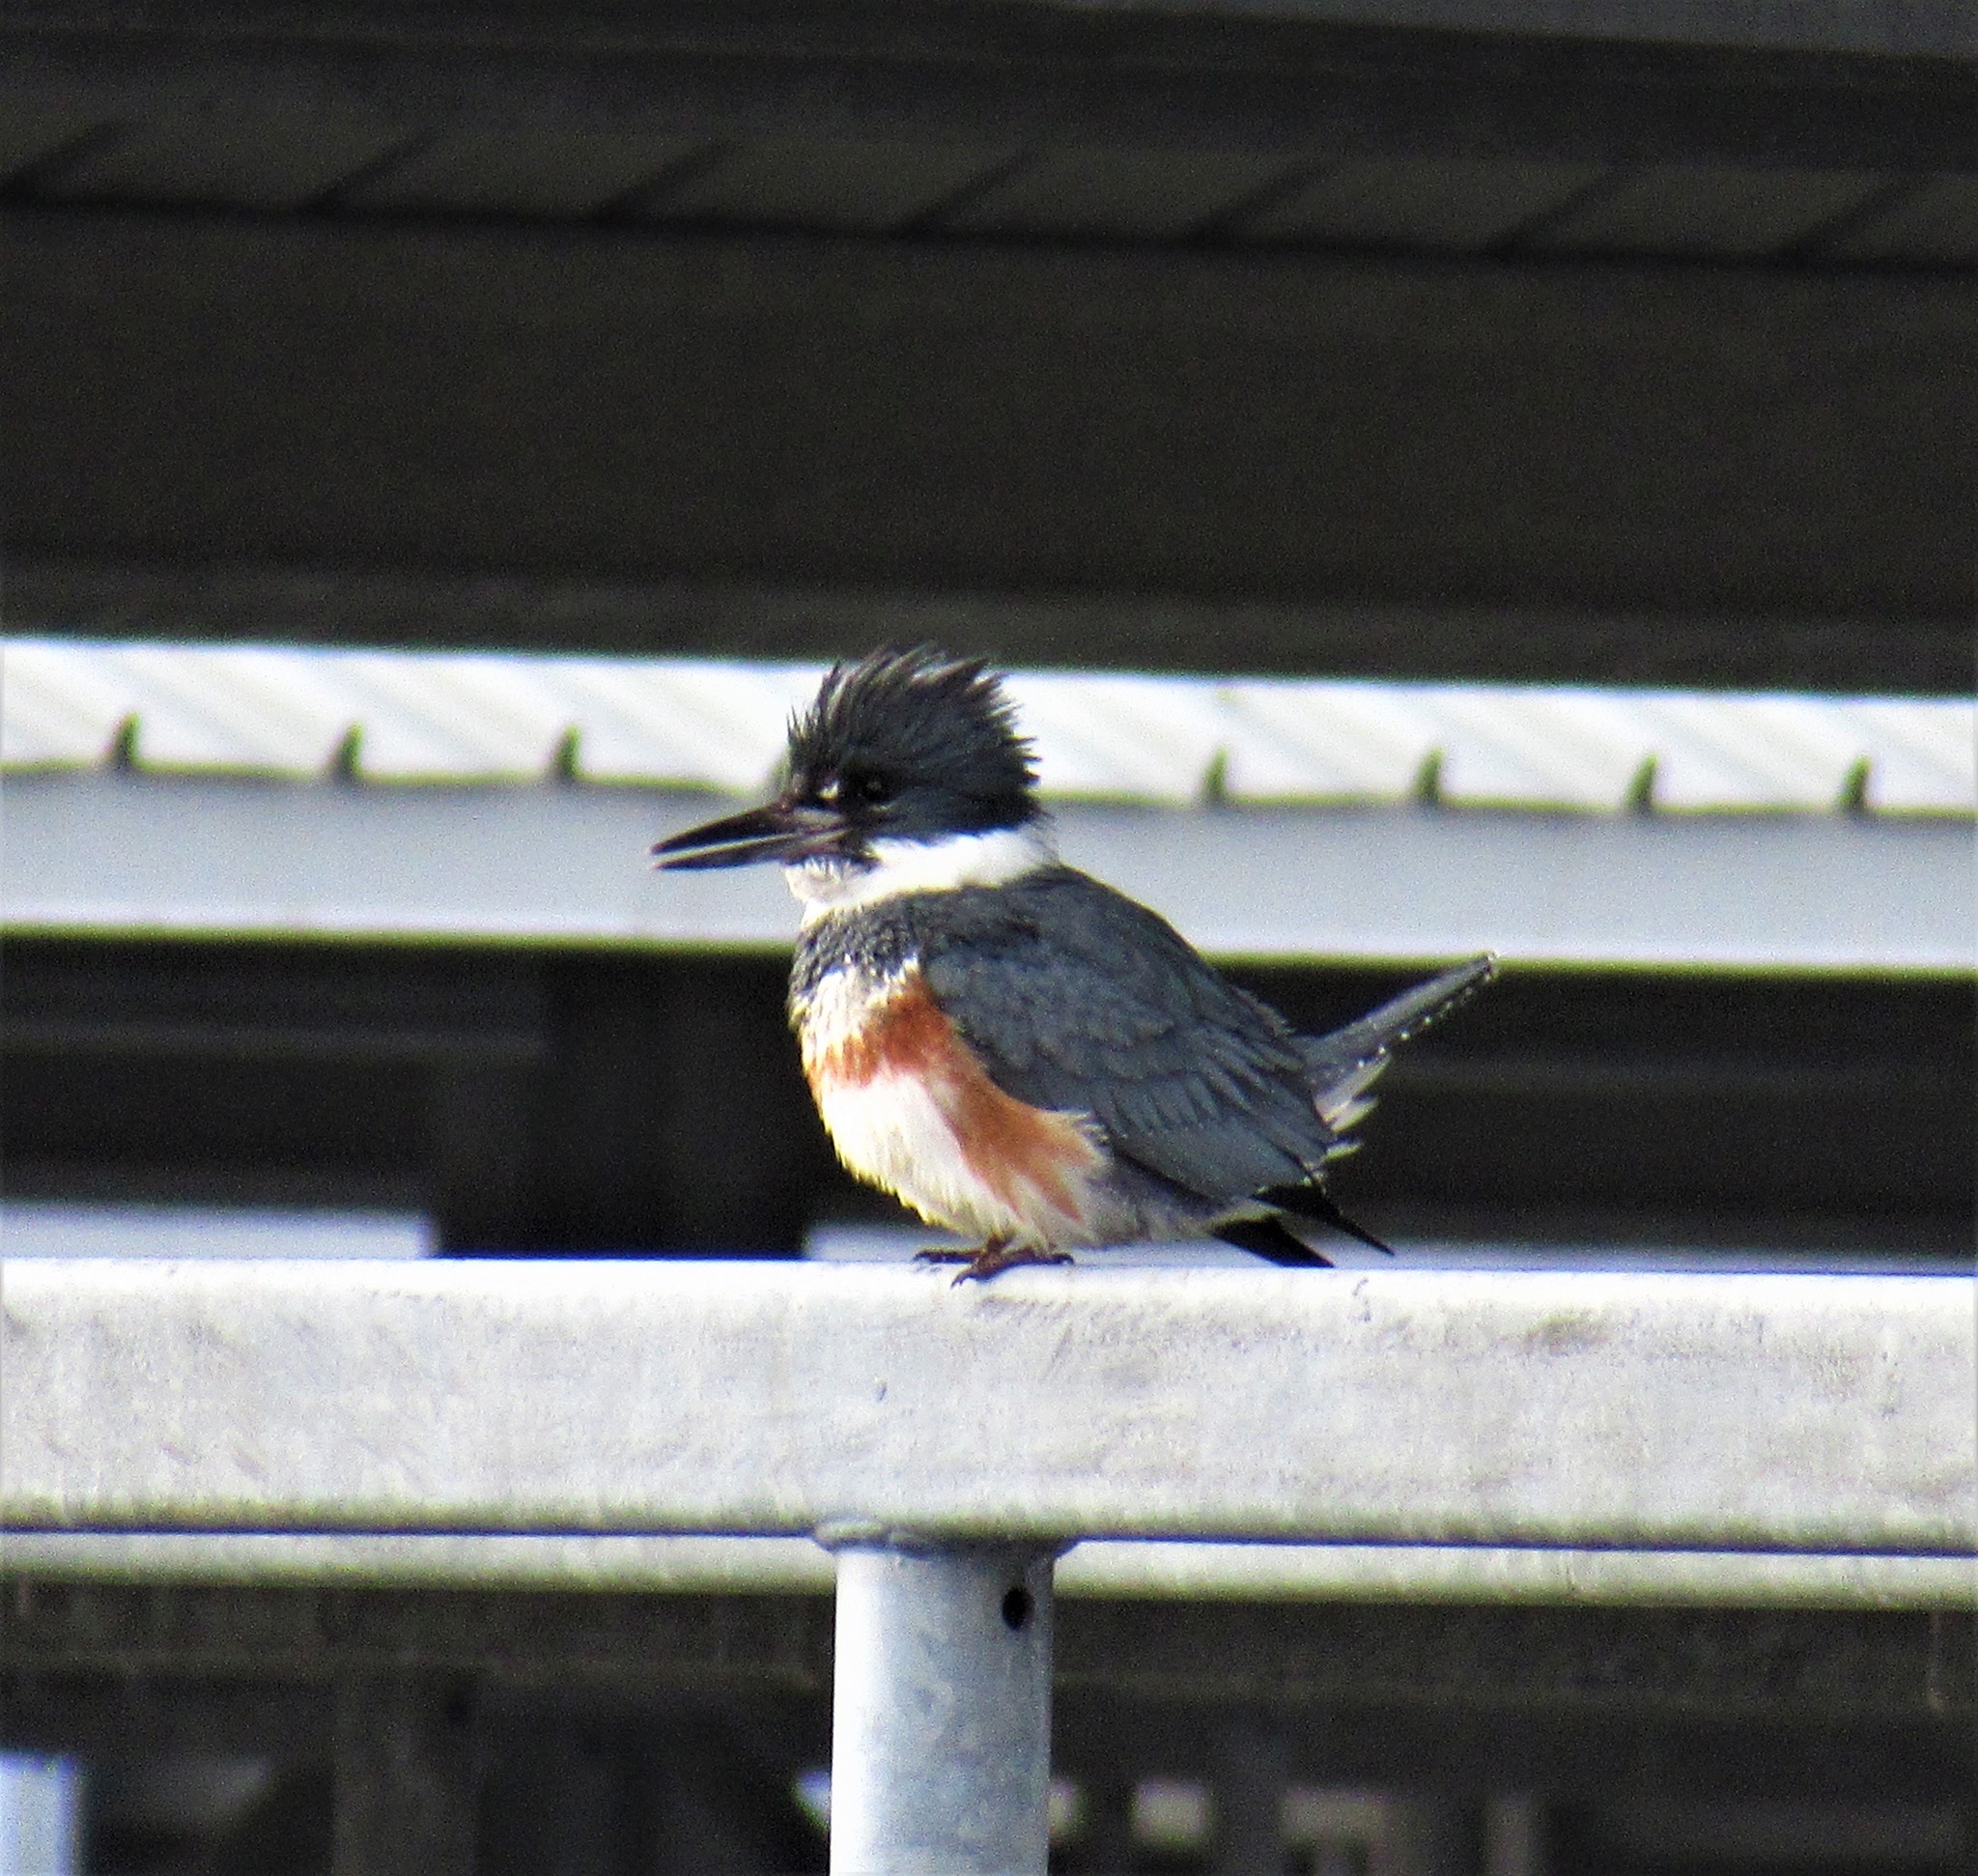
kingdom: Animalia
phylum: Chordata
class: Aves
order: Coraciiformes
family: Alcedinidae
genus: Megaceryle
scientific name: Megaceryle alcyon
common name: Belted kingfisher
